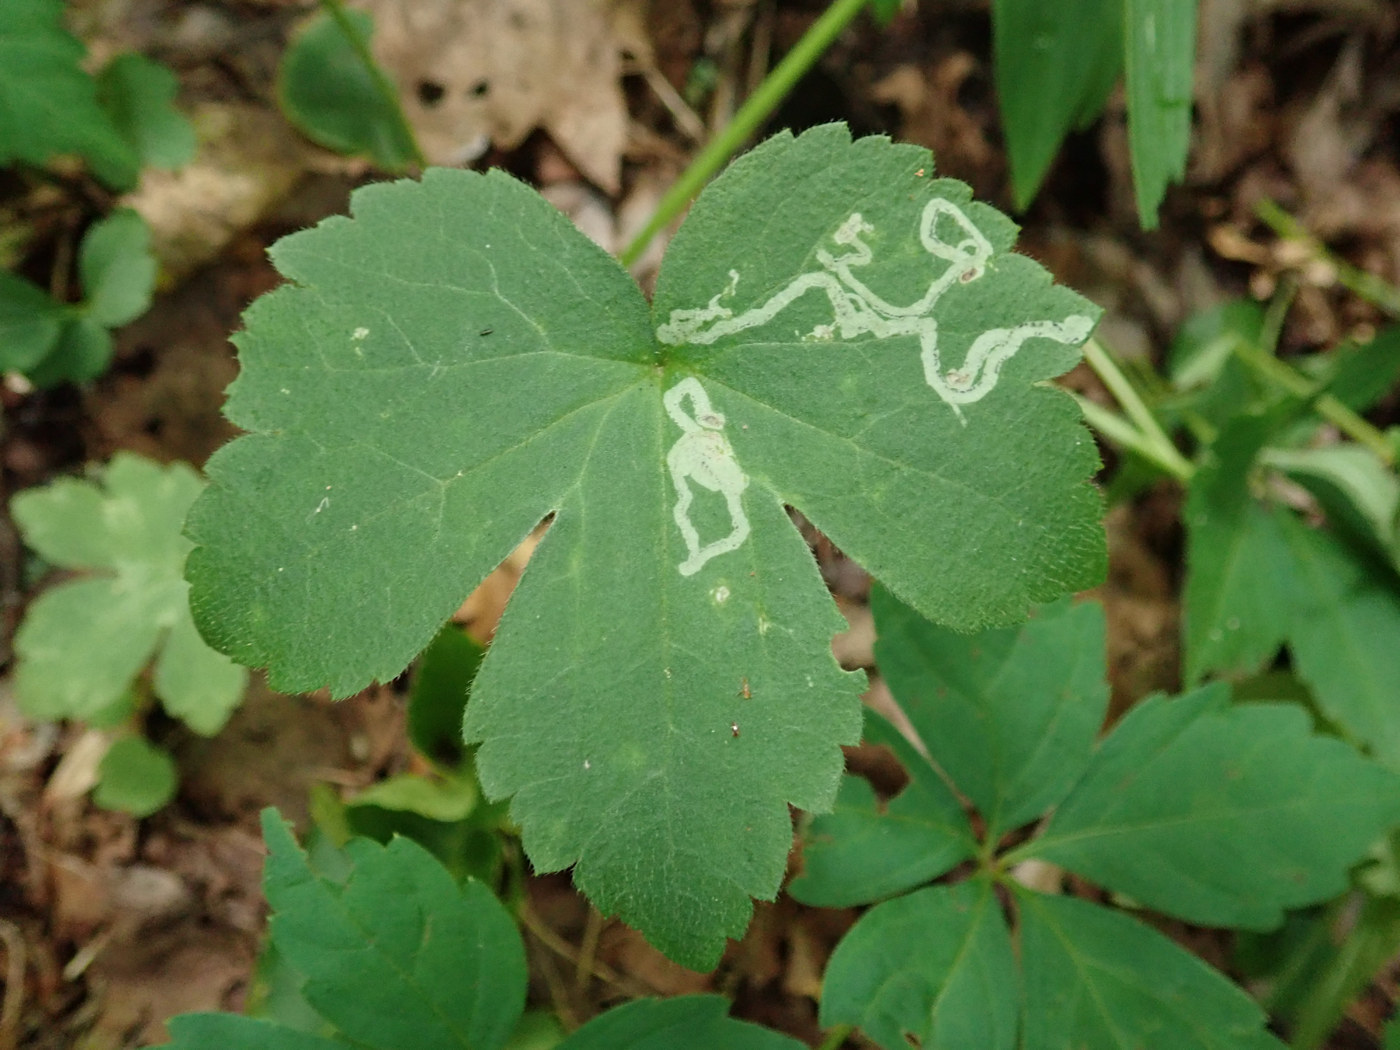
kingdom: Animalia
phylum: Arthropoda
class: Insecta
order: Diptera
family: Agromyzidae
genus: Phytomyza
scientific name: Phytomyza loewii
